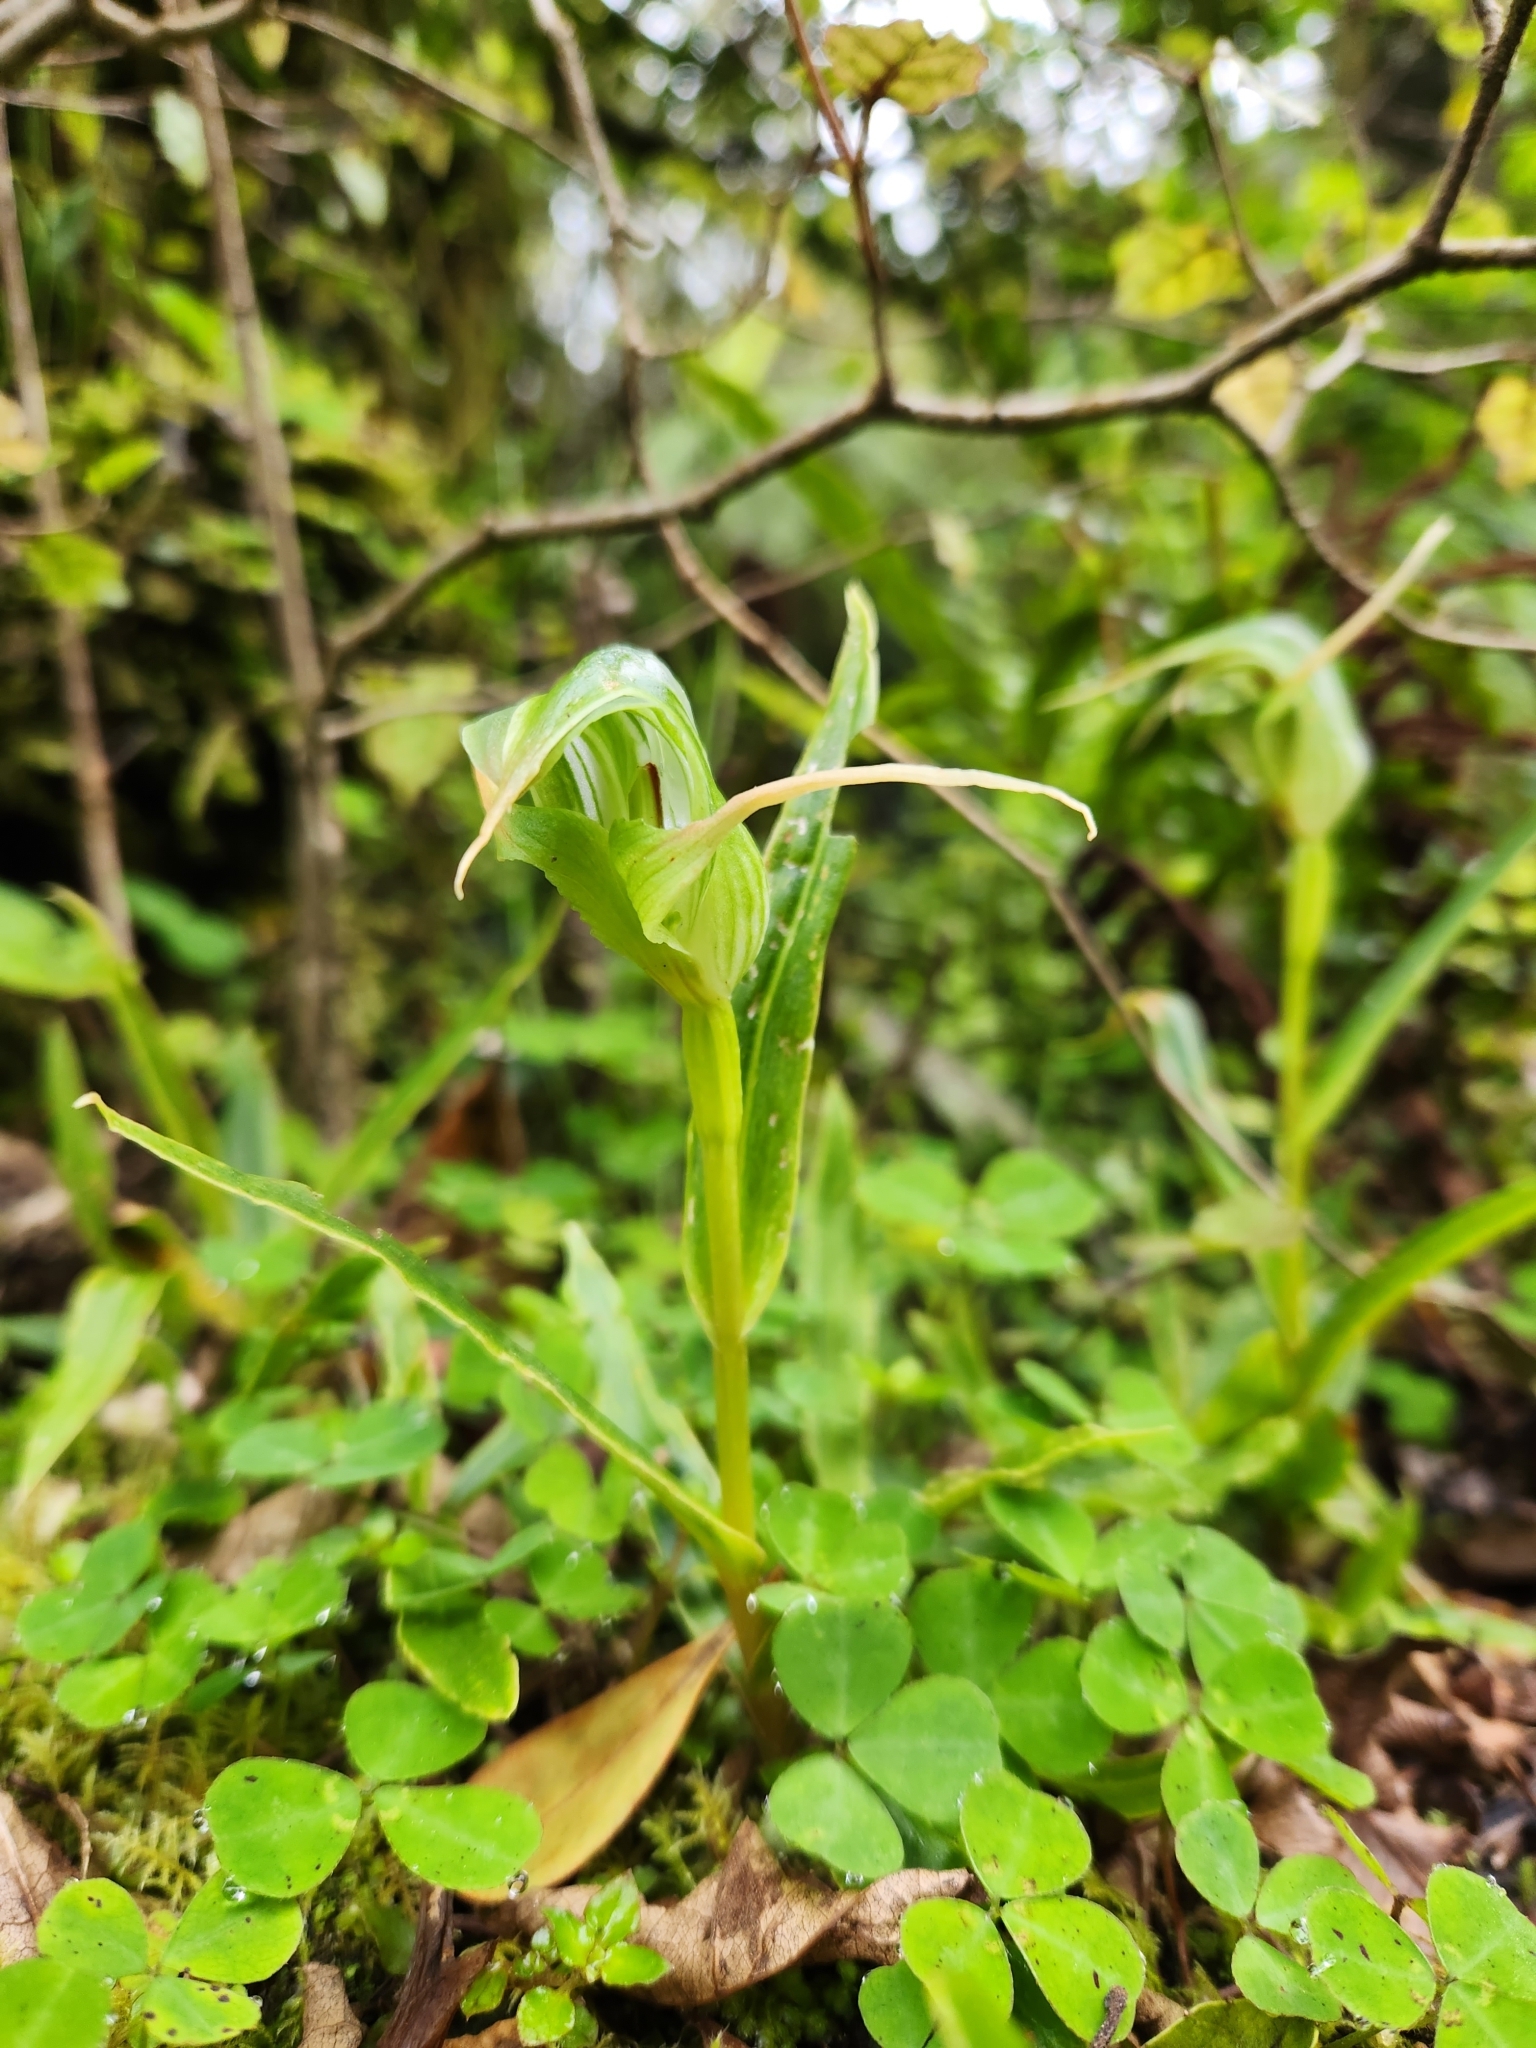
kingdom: Plantae
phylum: Tracheophyta
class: Liliopsida
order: Asparagales
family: Orchidaceae
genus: Pterostylis
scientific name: Pterostylis banksii
